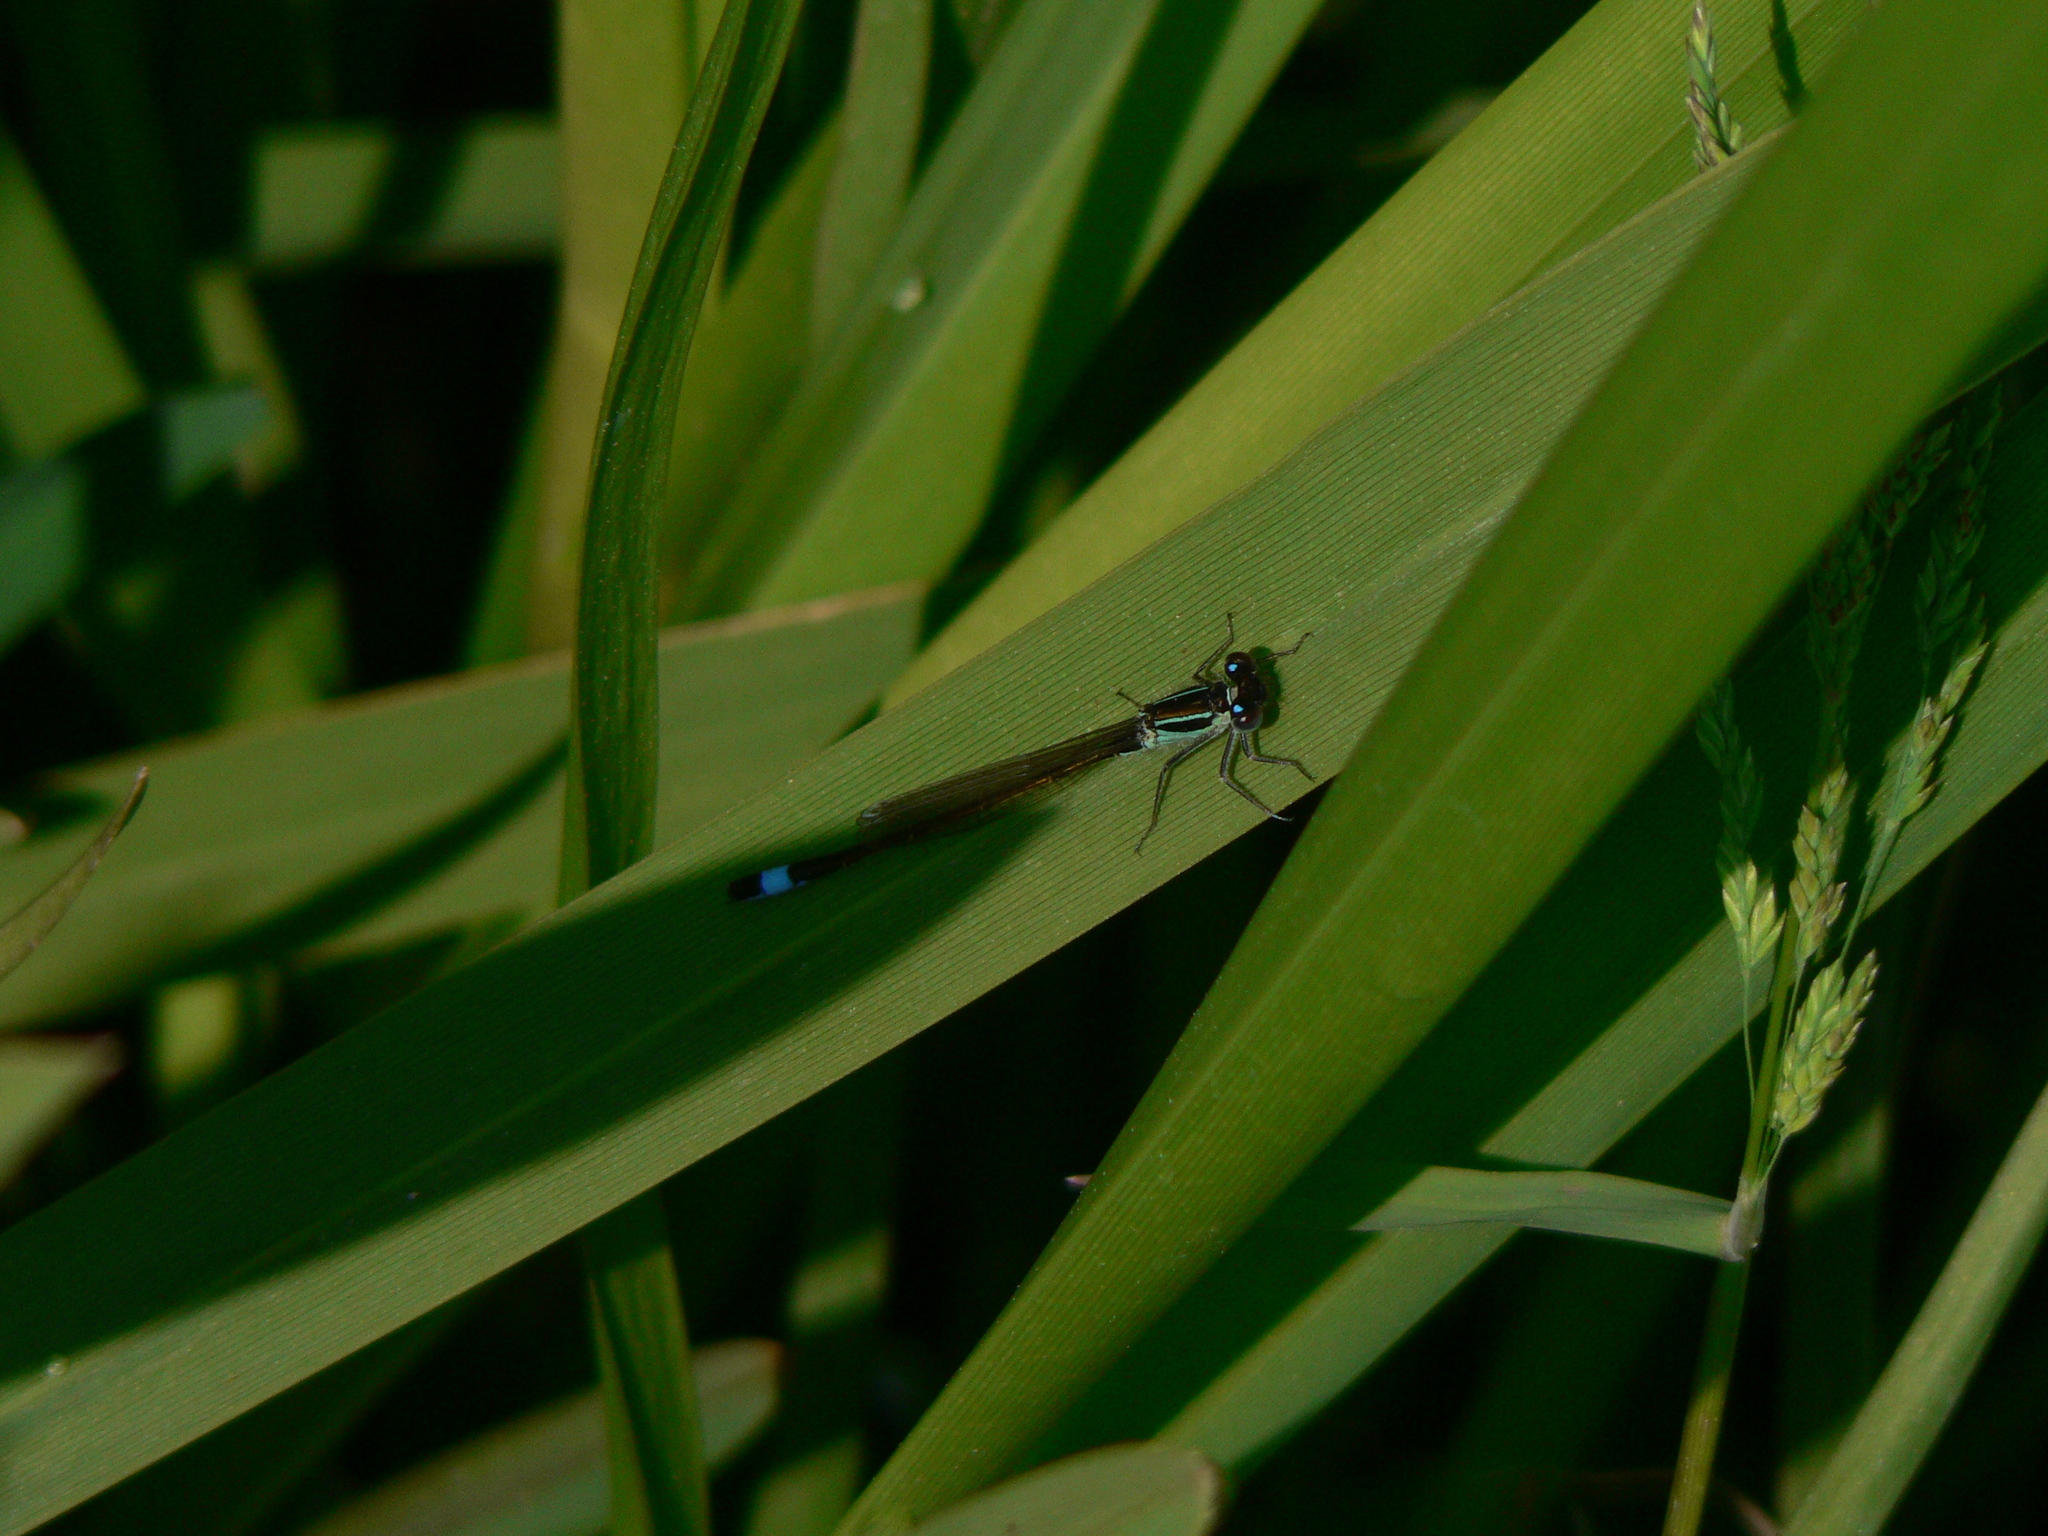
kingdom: Animalia
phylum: Arthropoda
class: Insecta
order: Odonata
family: Coenagrionidae
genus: Ischnura
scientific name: Ischnura elegans
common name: Blue-tailed damselfly
